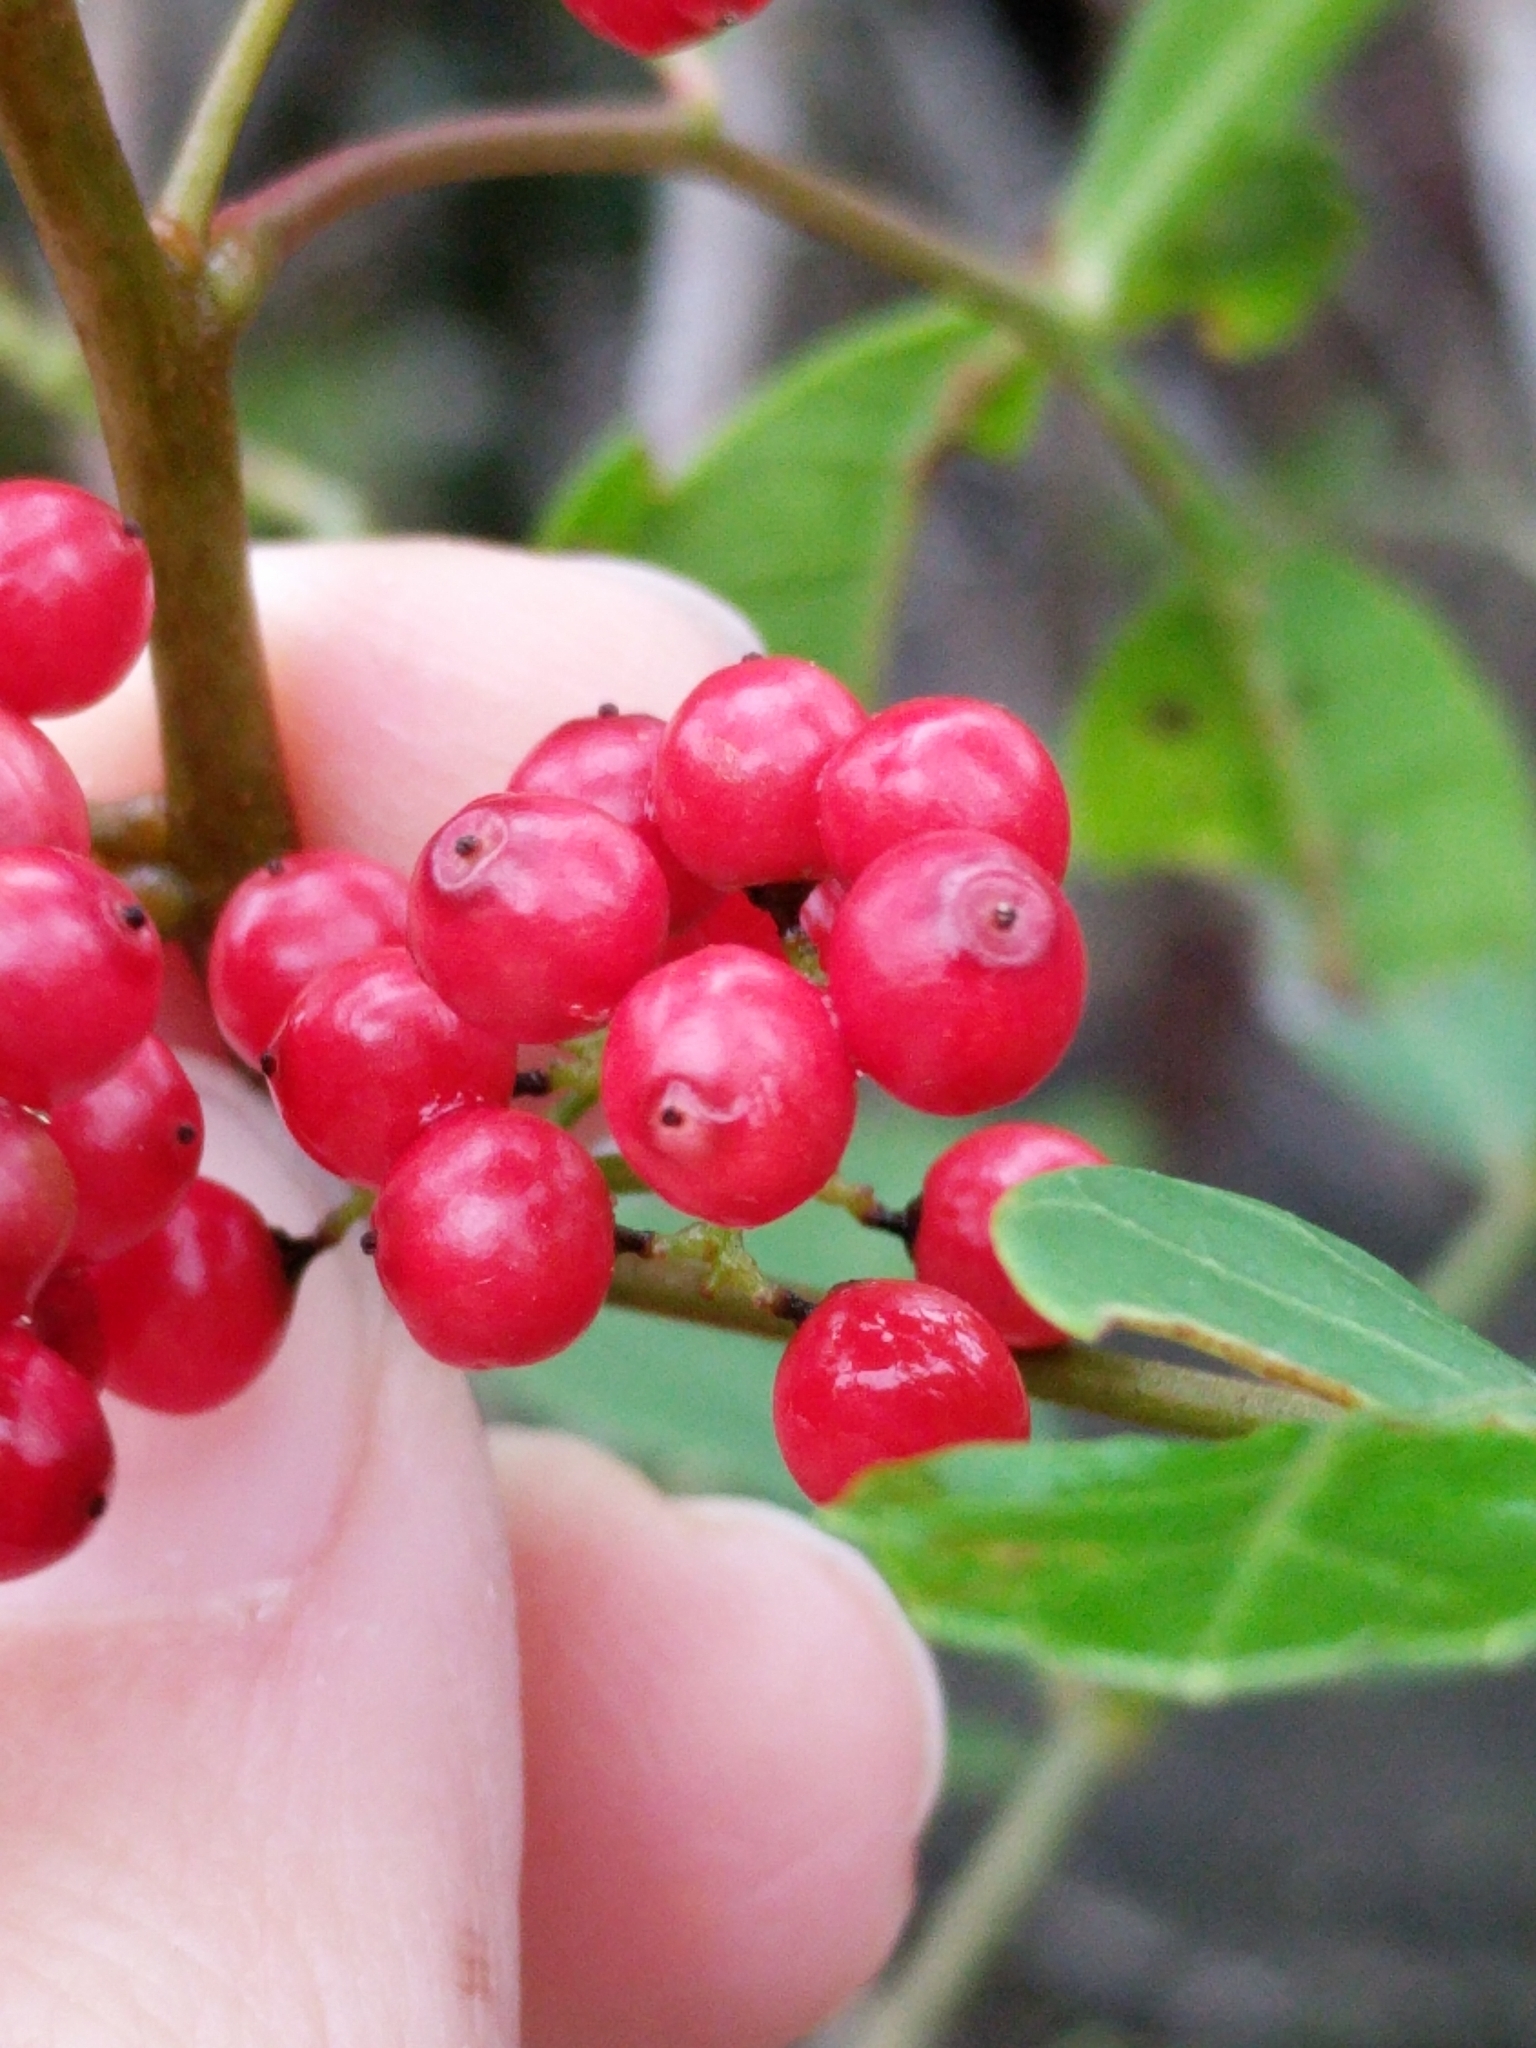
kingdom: Plantae
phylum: Tracheophyta
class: Magnoliopsida
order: Sapindales
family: Anacardiaceae
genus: Schinus
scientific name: Schinus terebinthifolia
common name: Brazilian peppertree
